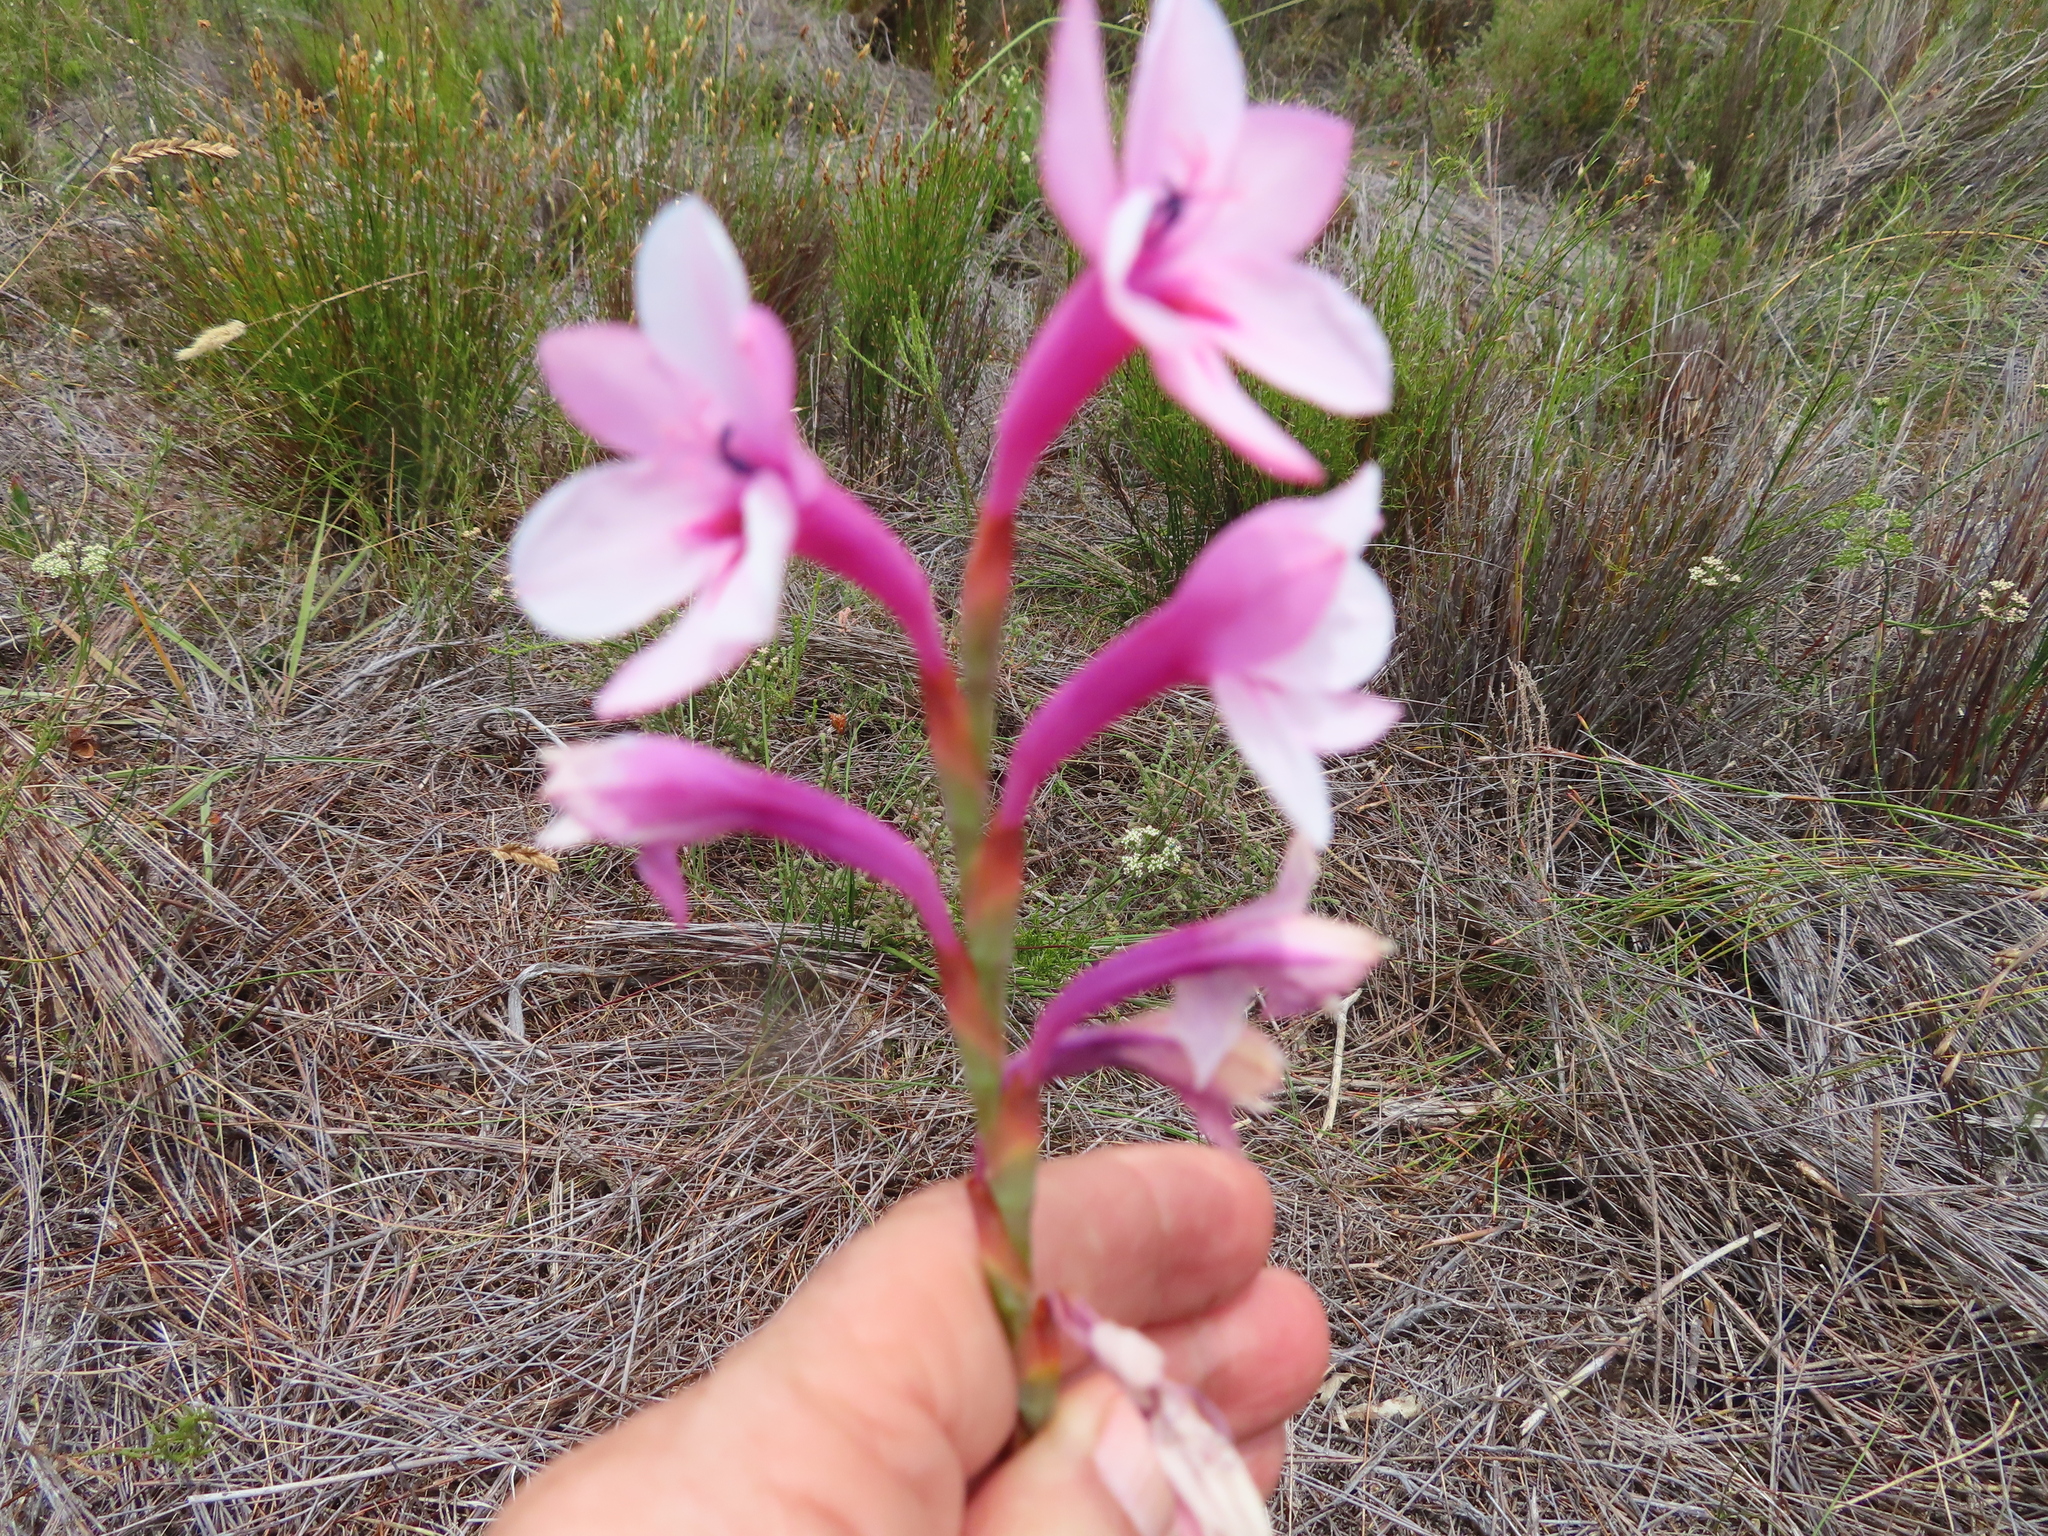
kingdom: Plantae
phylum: Tracheophyta
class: Liliopsida
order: Asparagales
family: Iridaceae
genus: Watsonia
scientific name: Watsonia zeyheri
